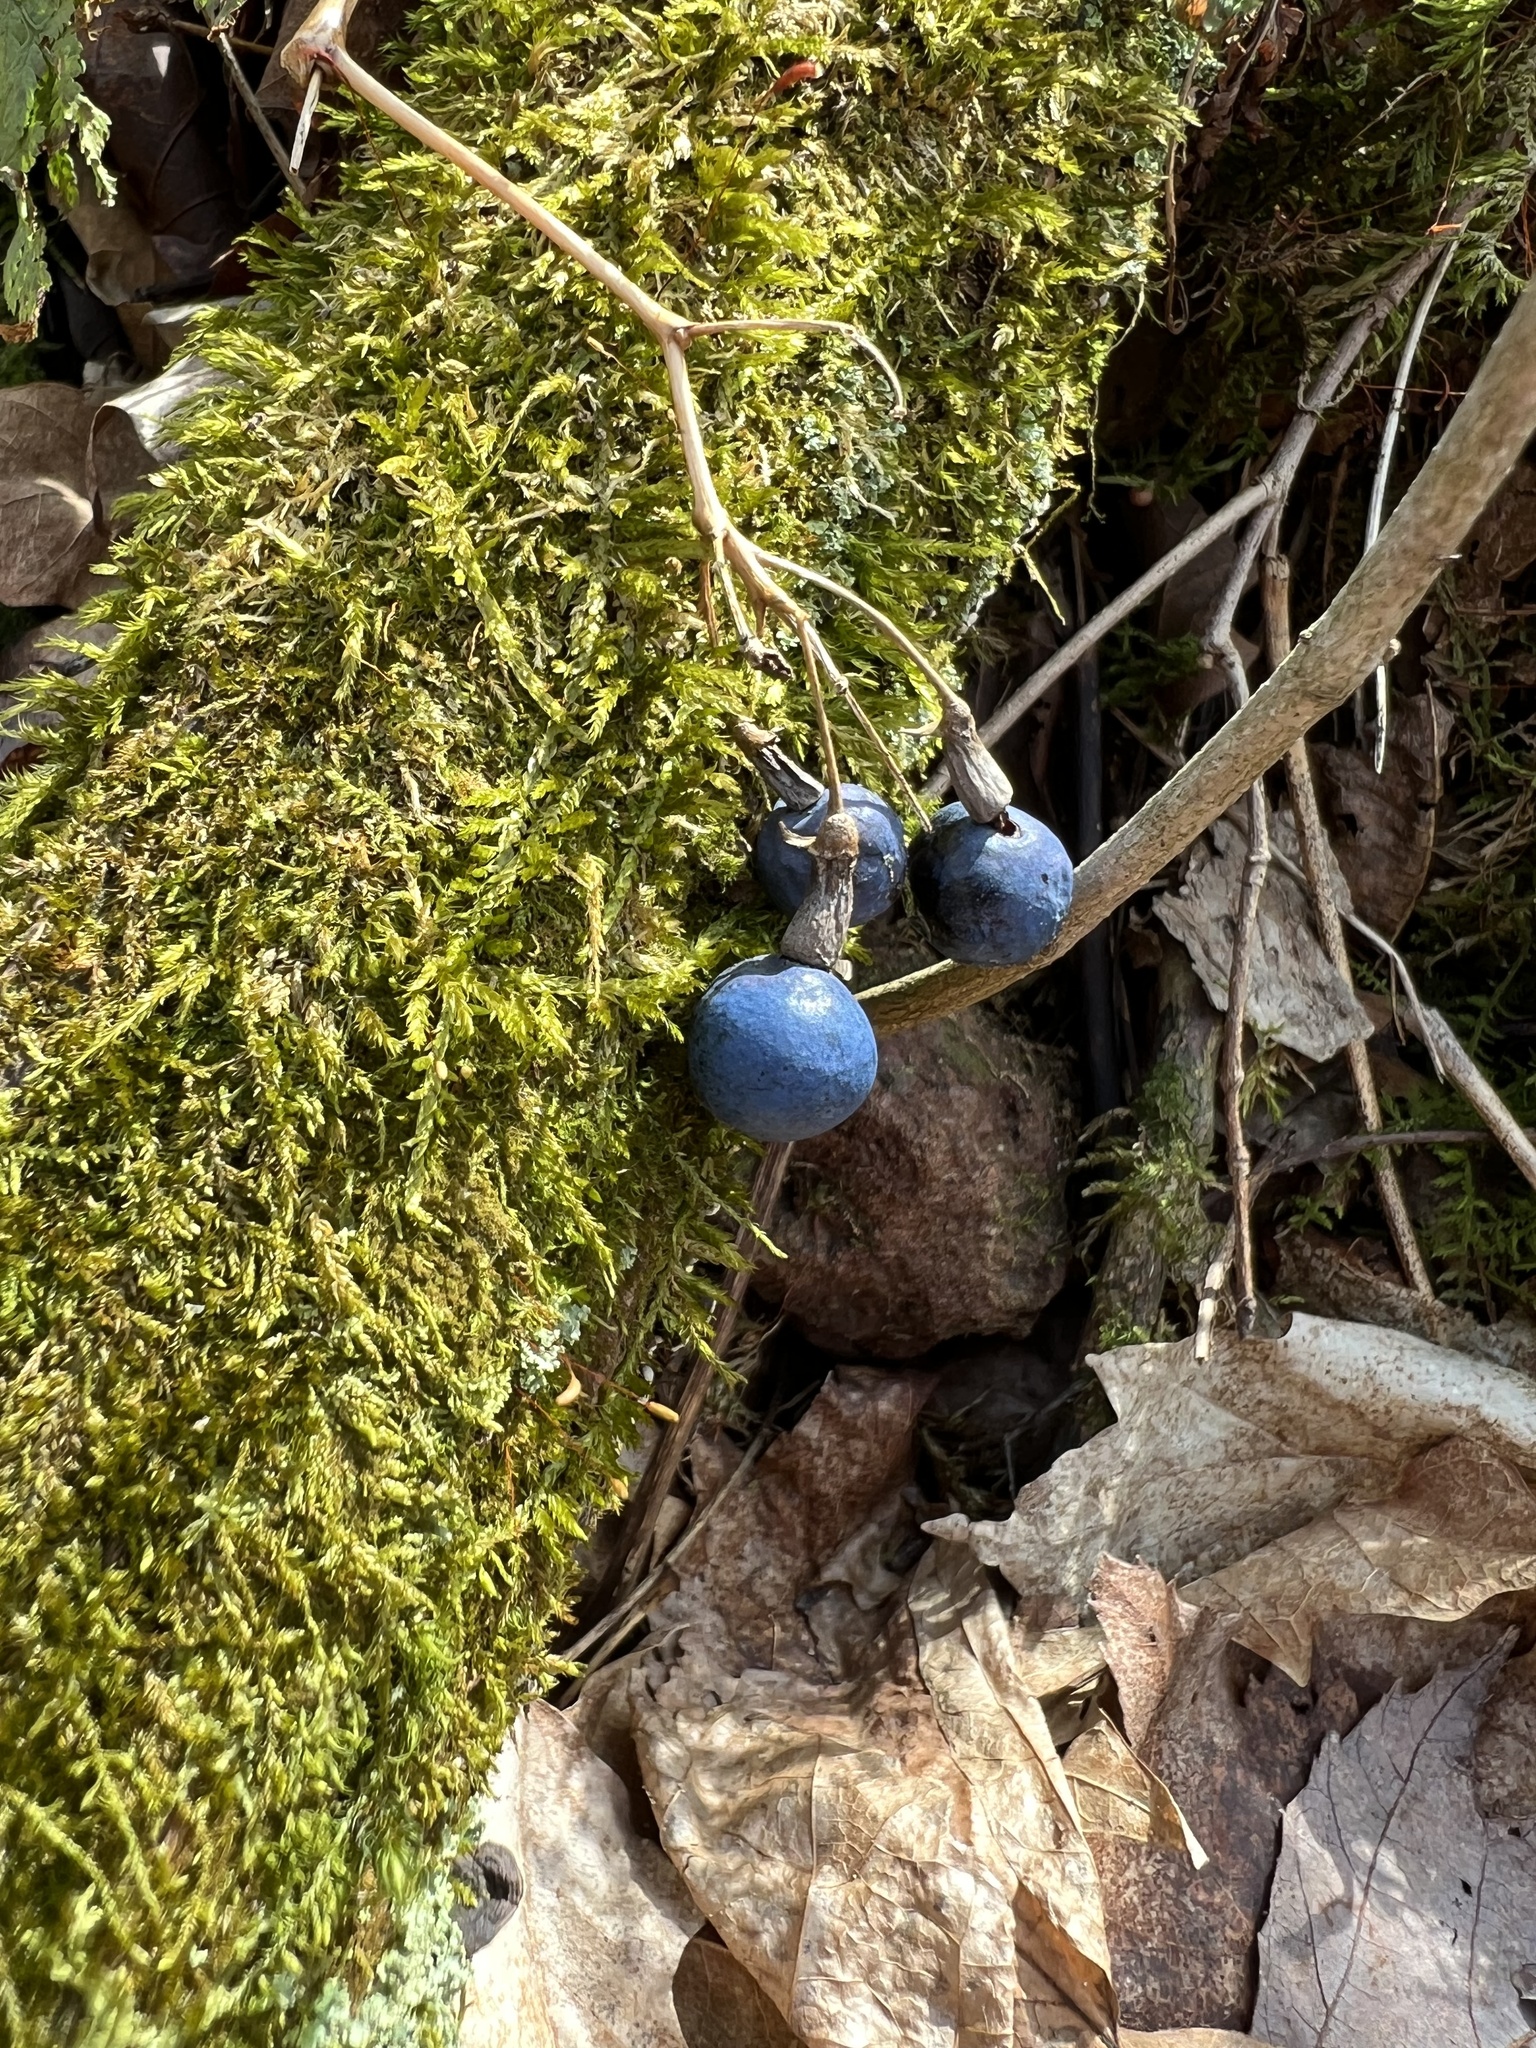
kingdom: Plantae
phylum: Tracheophyta
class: Magnoliopsida
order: Ranunculales
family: Berberidaceae
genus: Caulophyllum
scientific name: Caulophyllum thalictroides
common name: Blue cohosh
